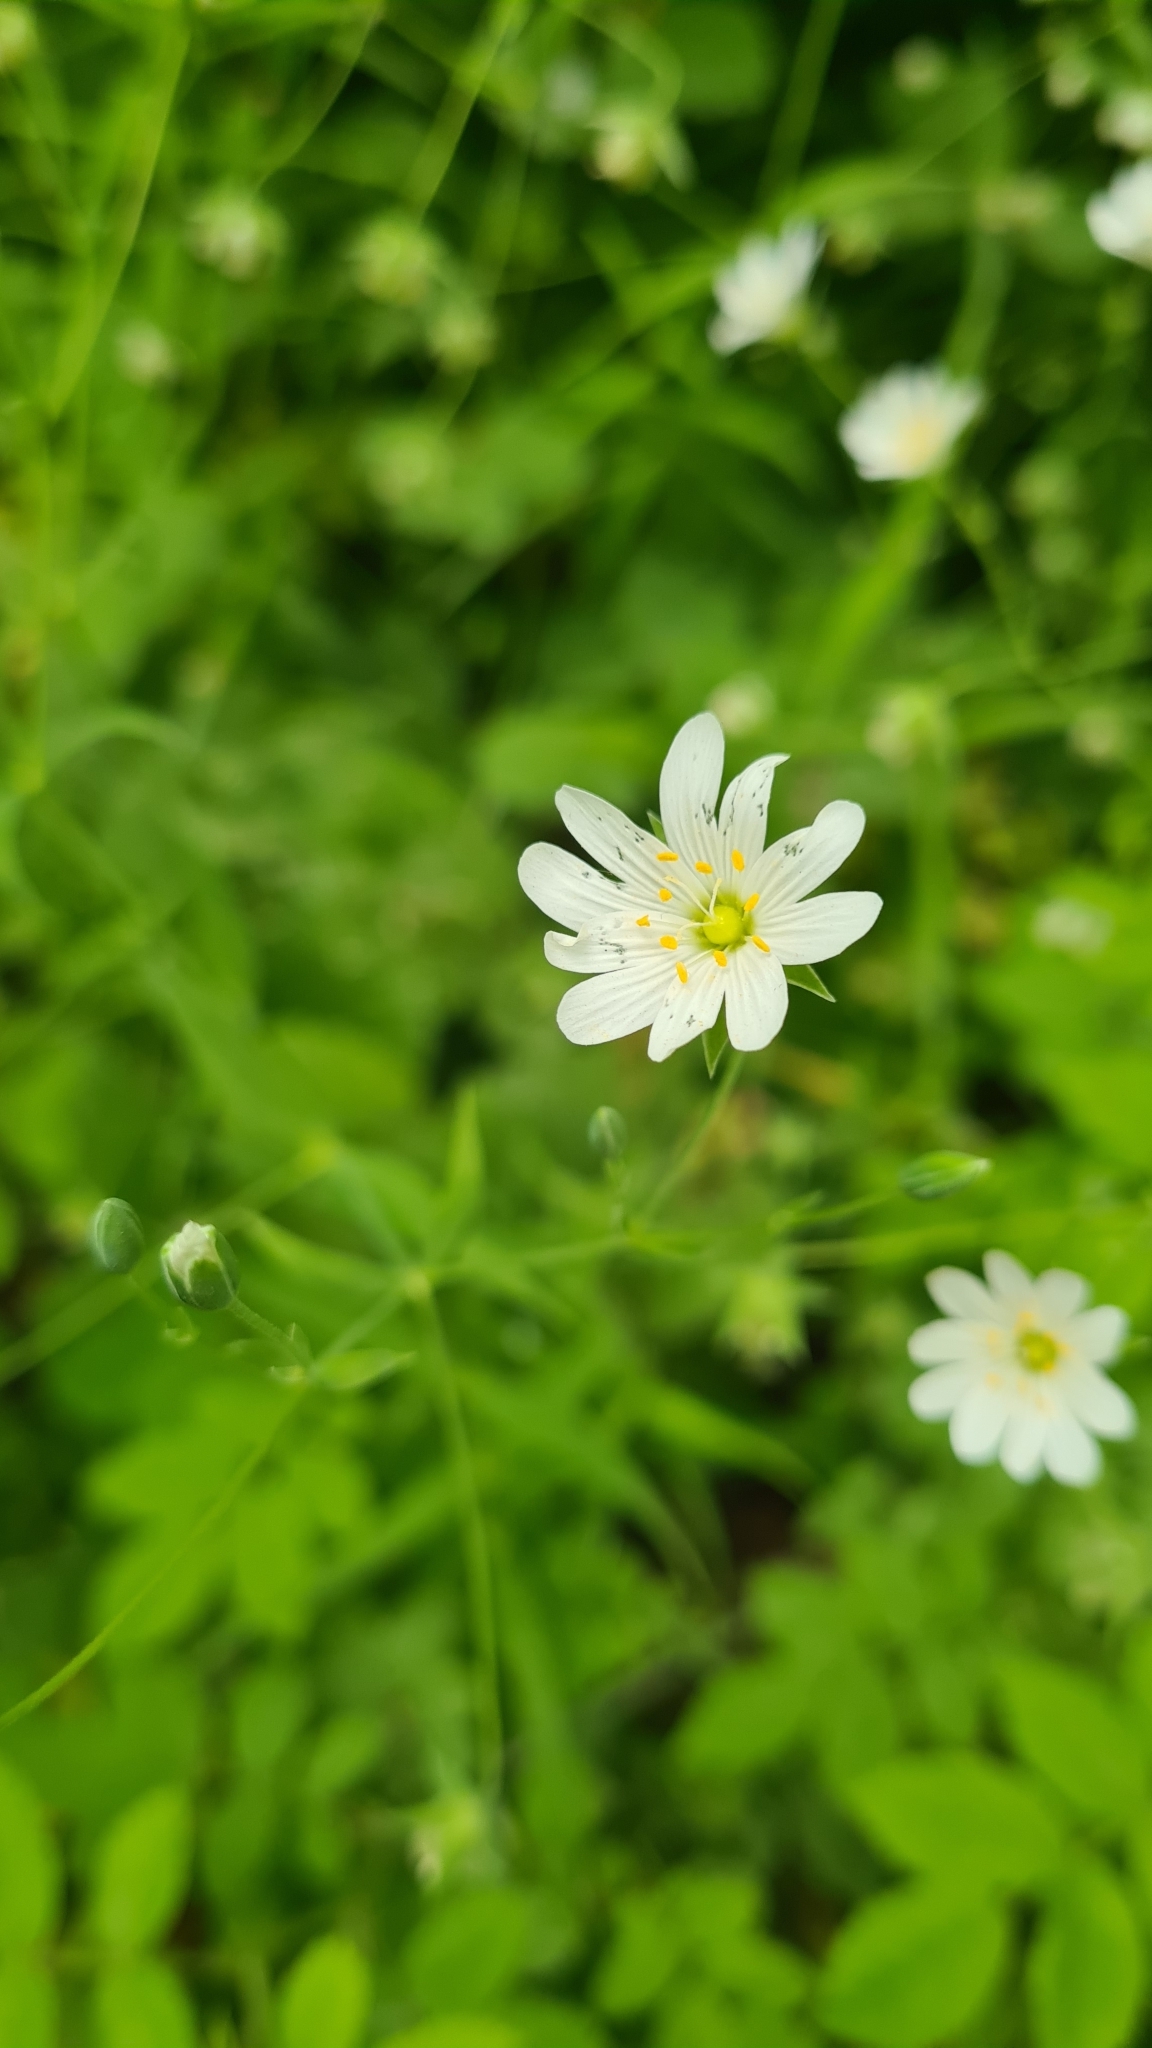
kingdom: Plantae
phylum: Tracheophyta
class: Magnoliopsida
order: Caryophyllales
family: Caryophyllaceae
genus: Rabelera
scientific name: Rabelera holostea
